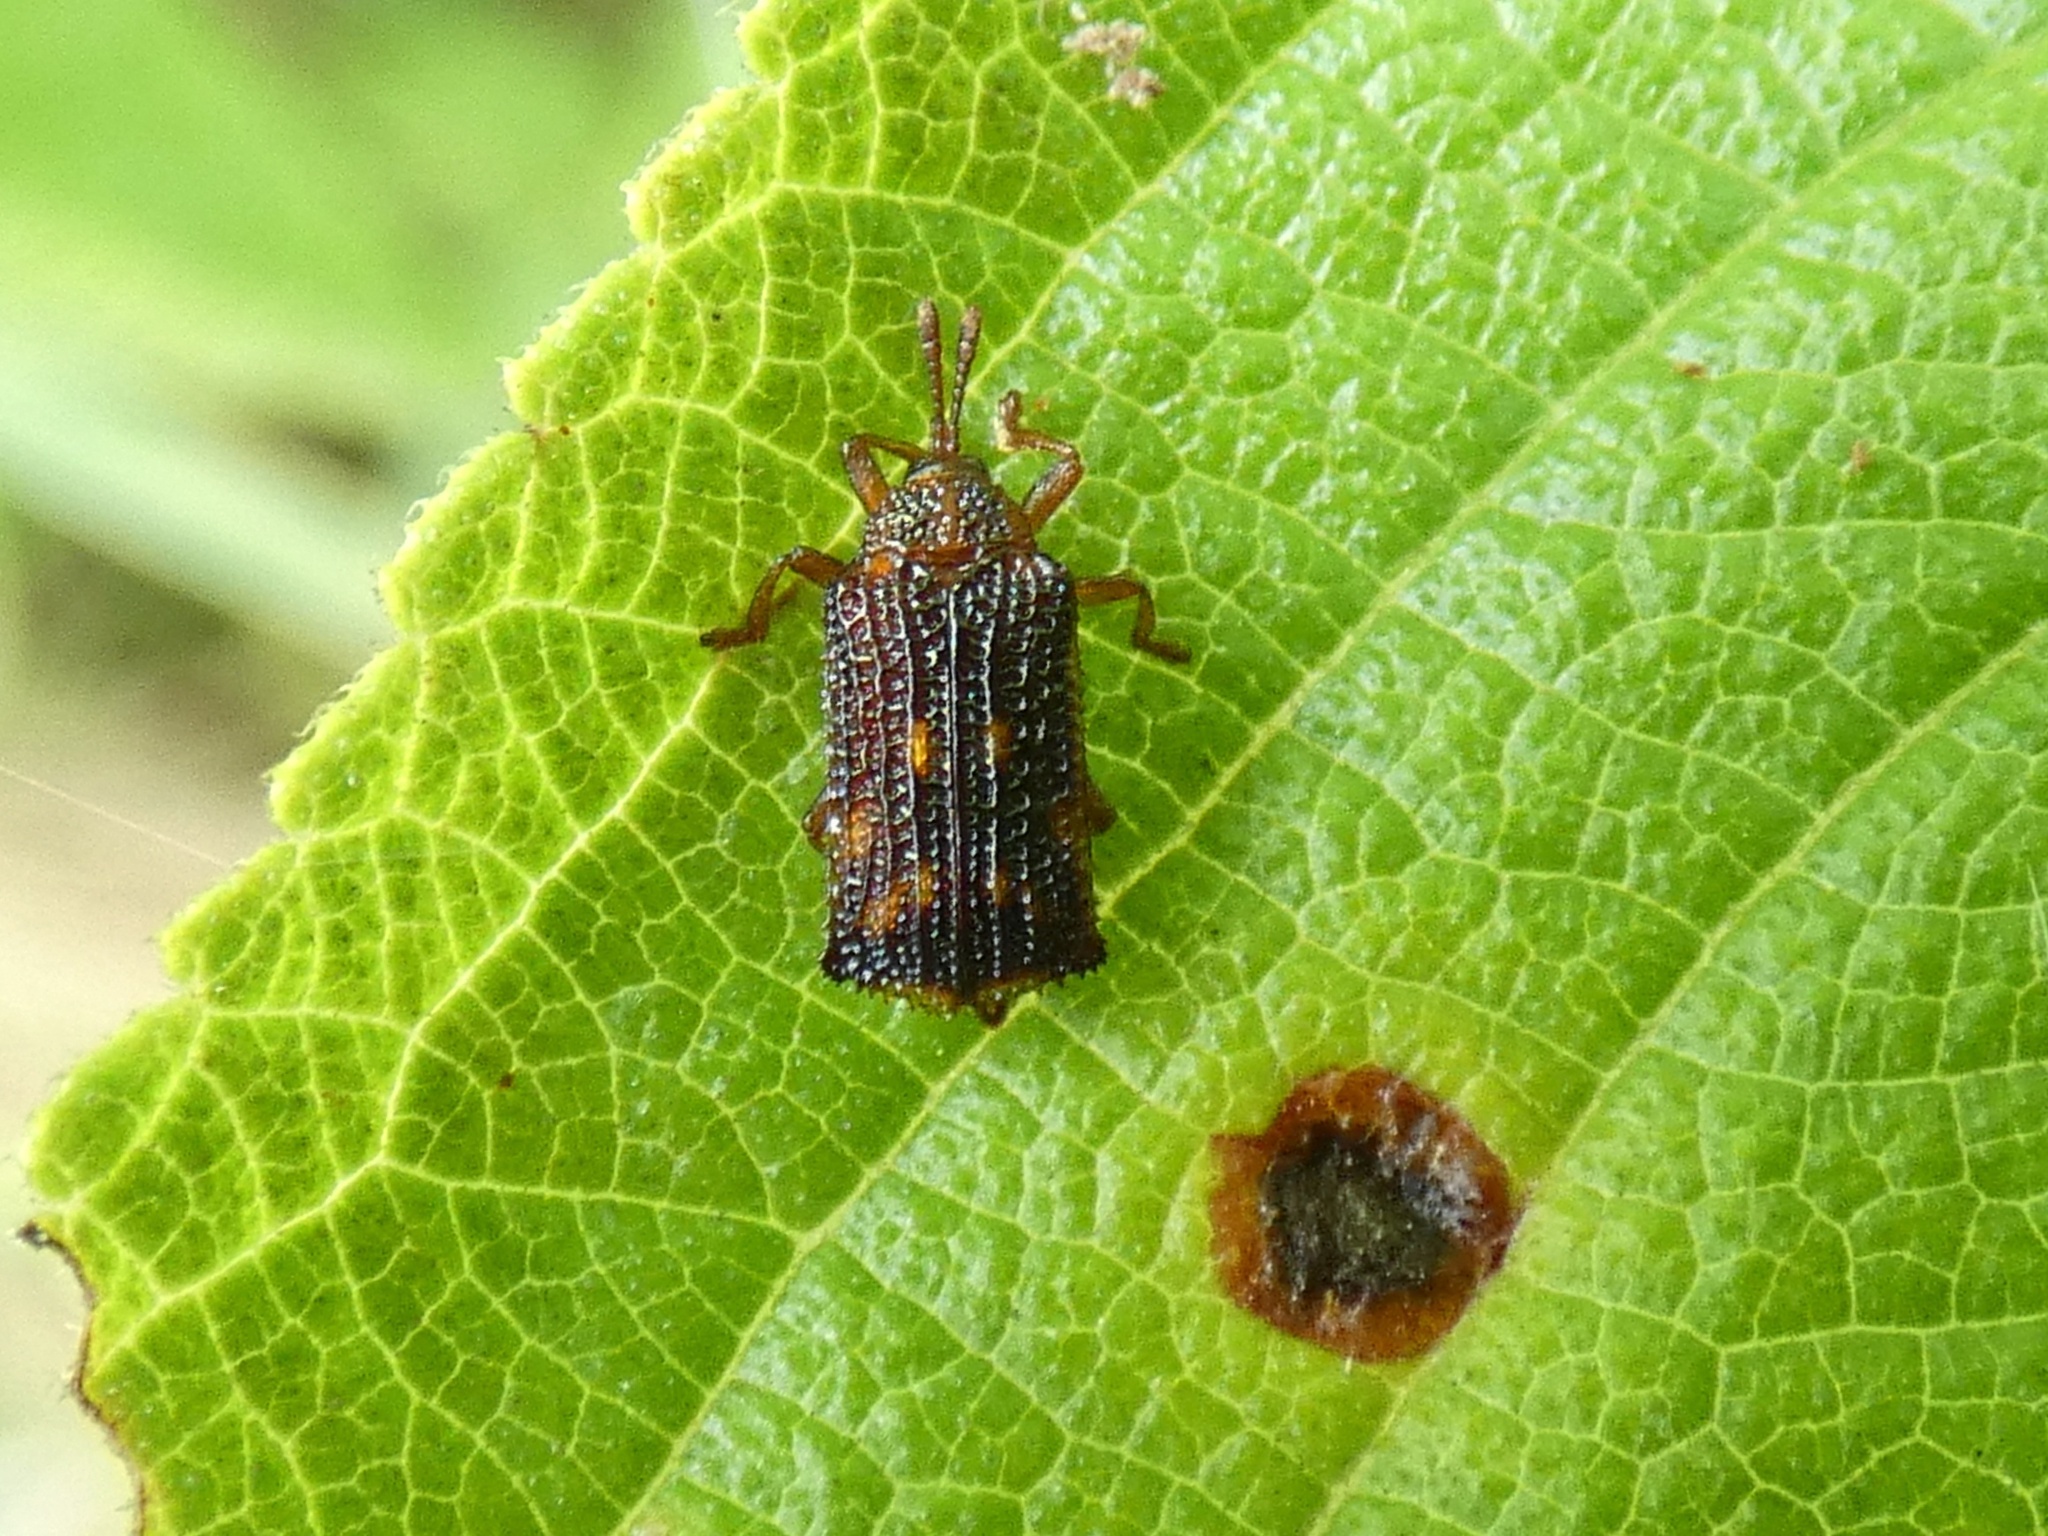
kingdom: Animalia
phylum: Arthropoda
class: Insecta
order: Coleoptera
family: Chrysomelidae
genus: Uroplata
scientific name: Uroplata girardi
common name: Lantana leafminer
